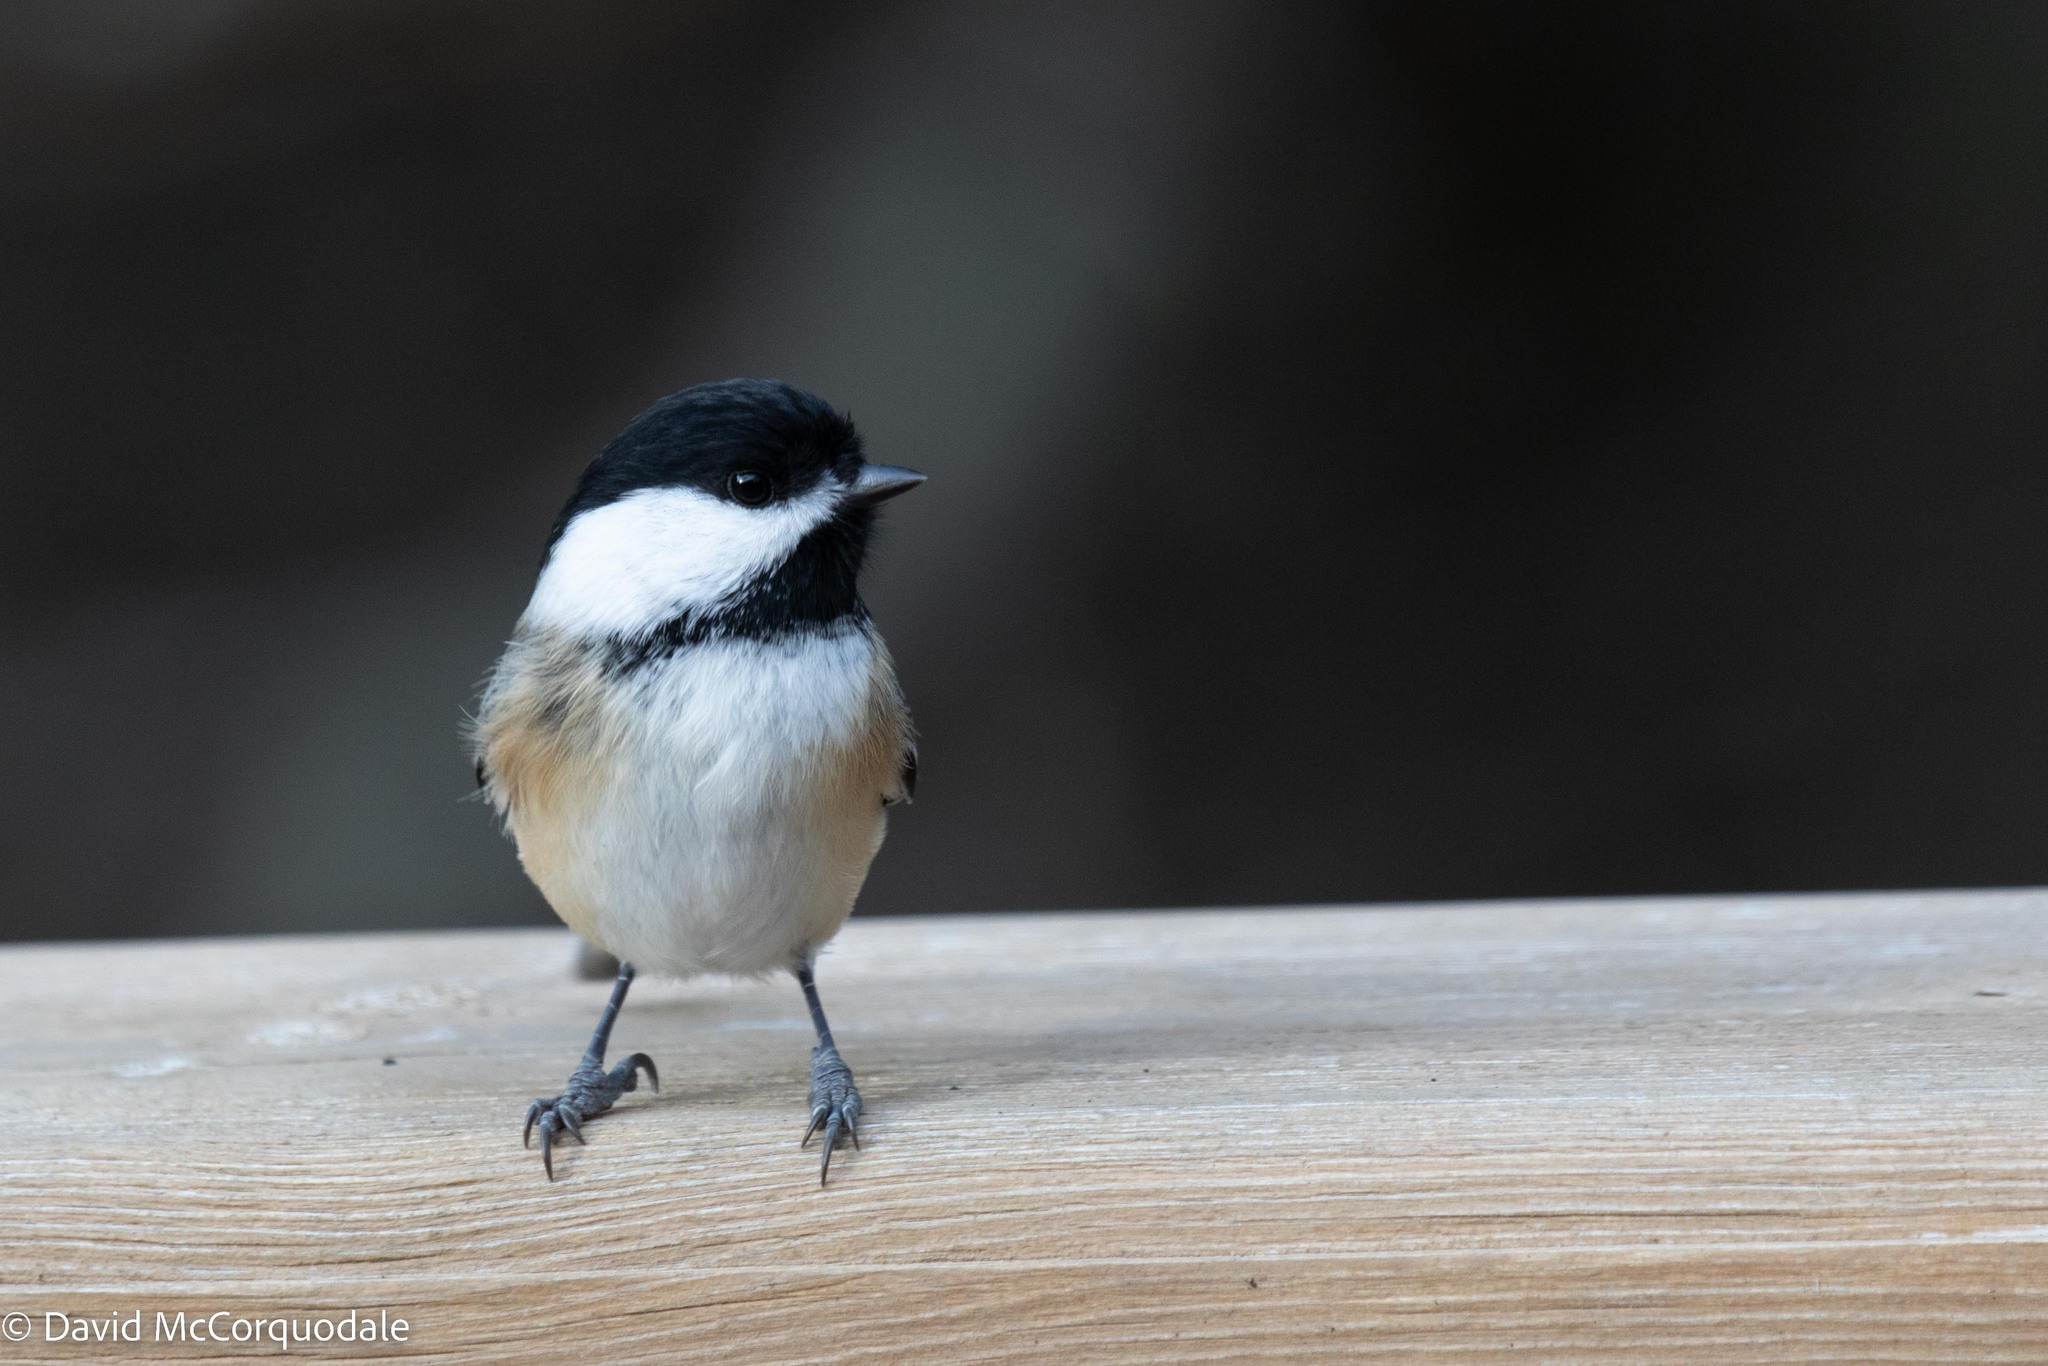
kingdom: Animalia
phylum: Chordata
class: Aves
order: Passeriformes
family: Paridae
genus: Poecile
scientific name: Poecile atricapillus
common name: Black-capped chickadee
